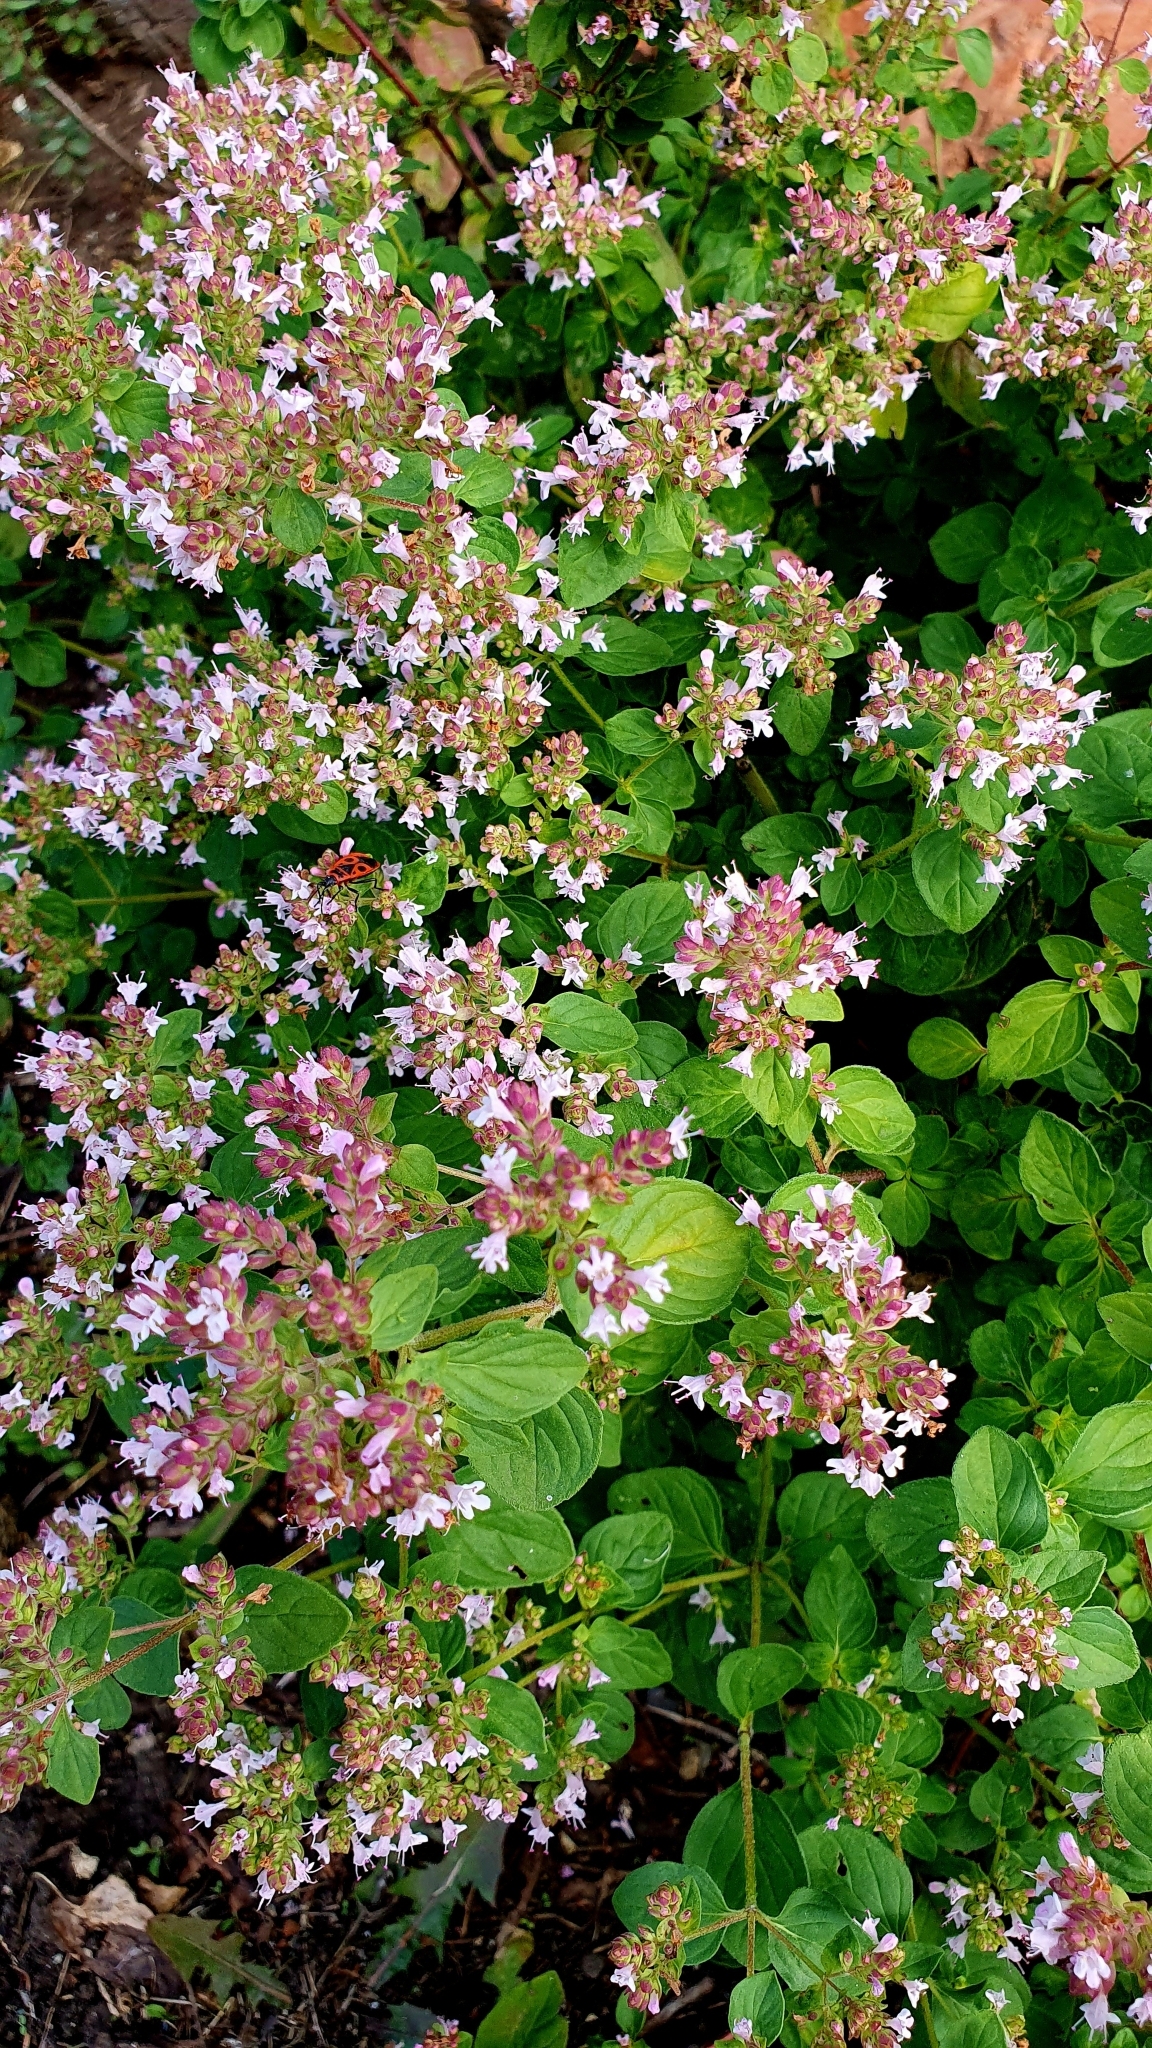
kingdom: Plantae
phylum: Tracheophyta
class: Magnoliopsida
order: Lamiales
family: Lamiaceae
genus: Origanum
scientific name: Origanum vulgare
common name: Wild marjoram
